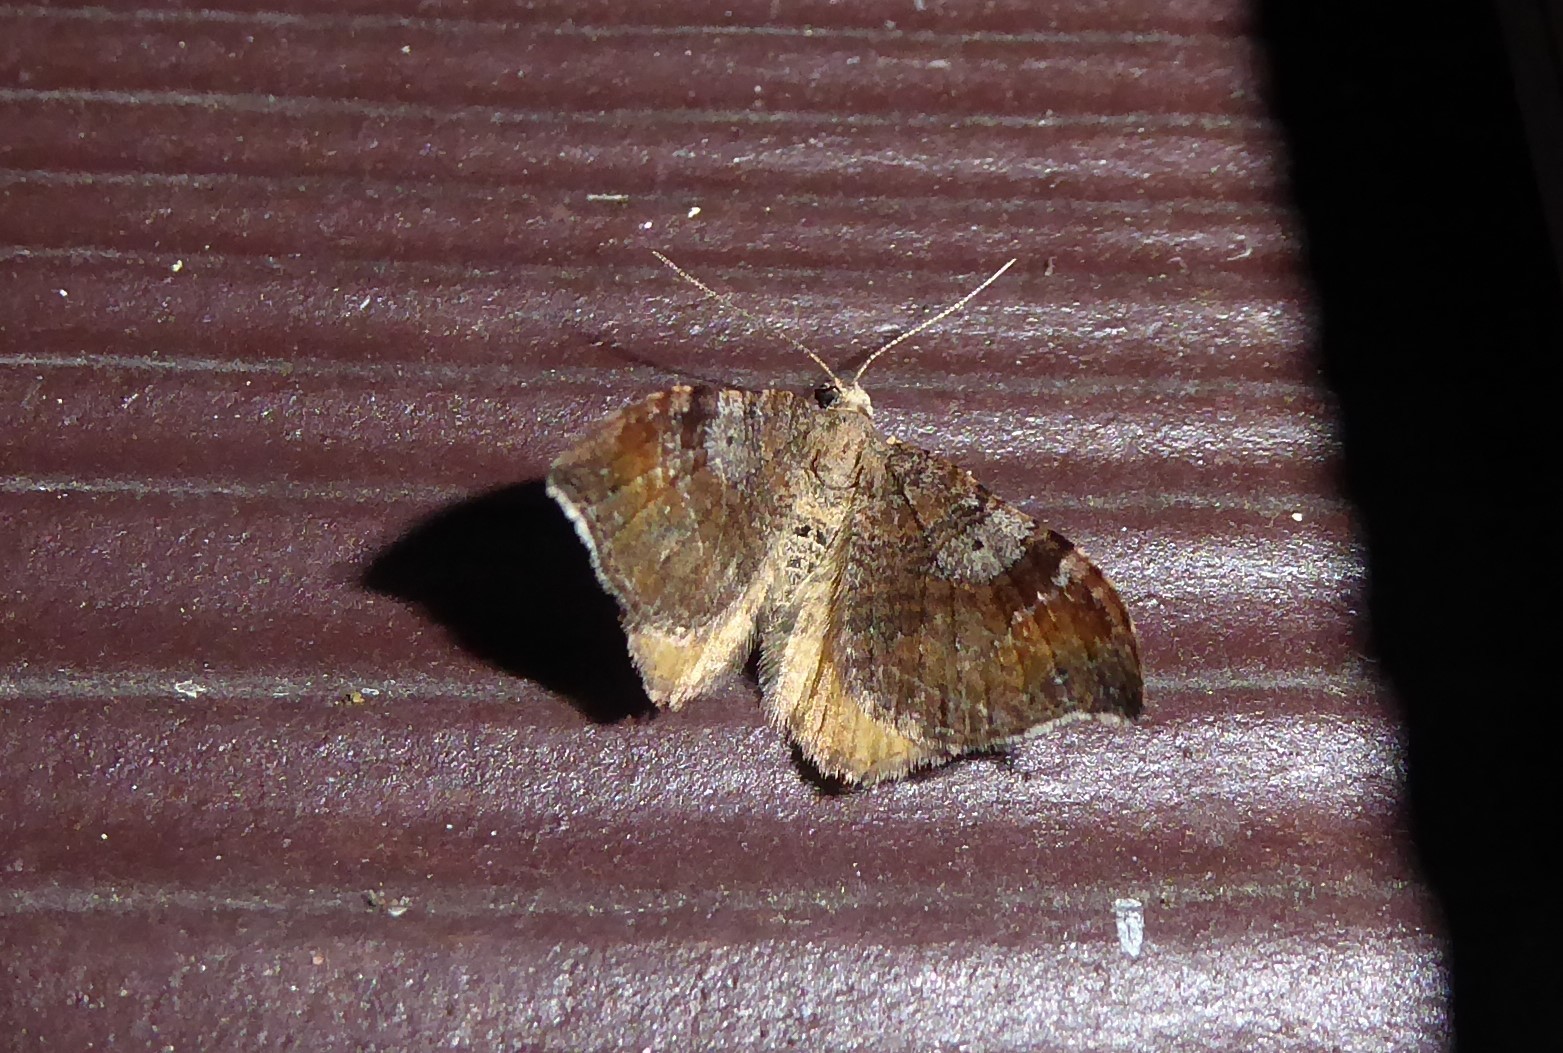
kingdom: Animalia
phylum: Arthropoda
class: Insecta
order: Lepidoptera
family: Geometridae
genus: Homodotis
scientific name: Homodotis megaspilata
